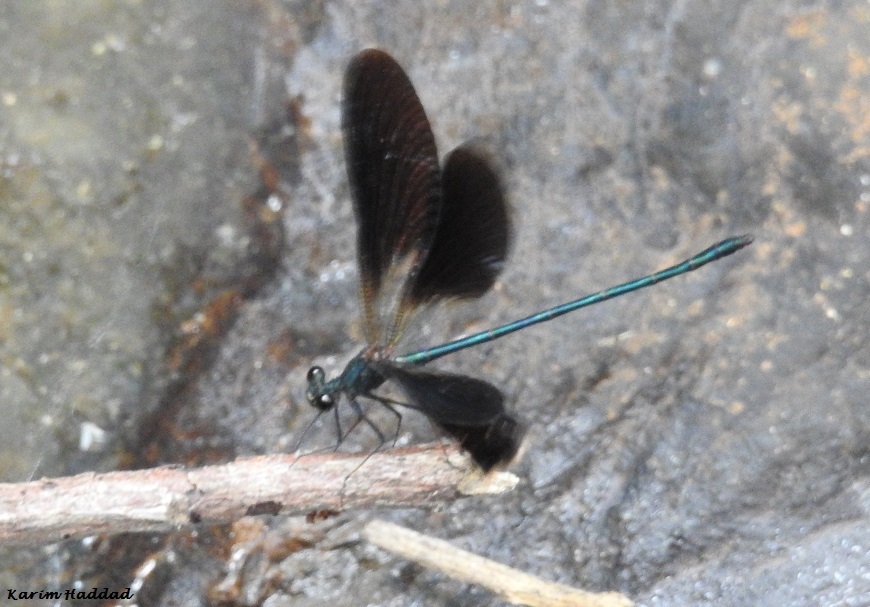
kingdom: Animalia
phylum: Arthropoda
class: Insecta
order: Odonata
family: Calopterygidae
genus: Calopteryx
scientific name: Calopteryx haemorrhoidalis
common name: Copper demoiselle
